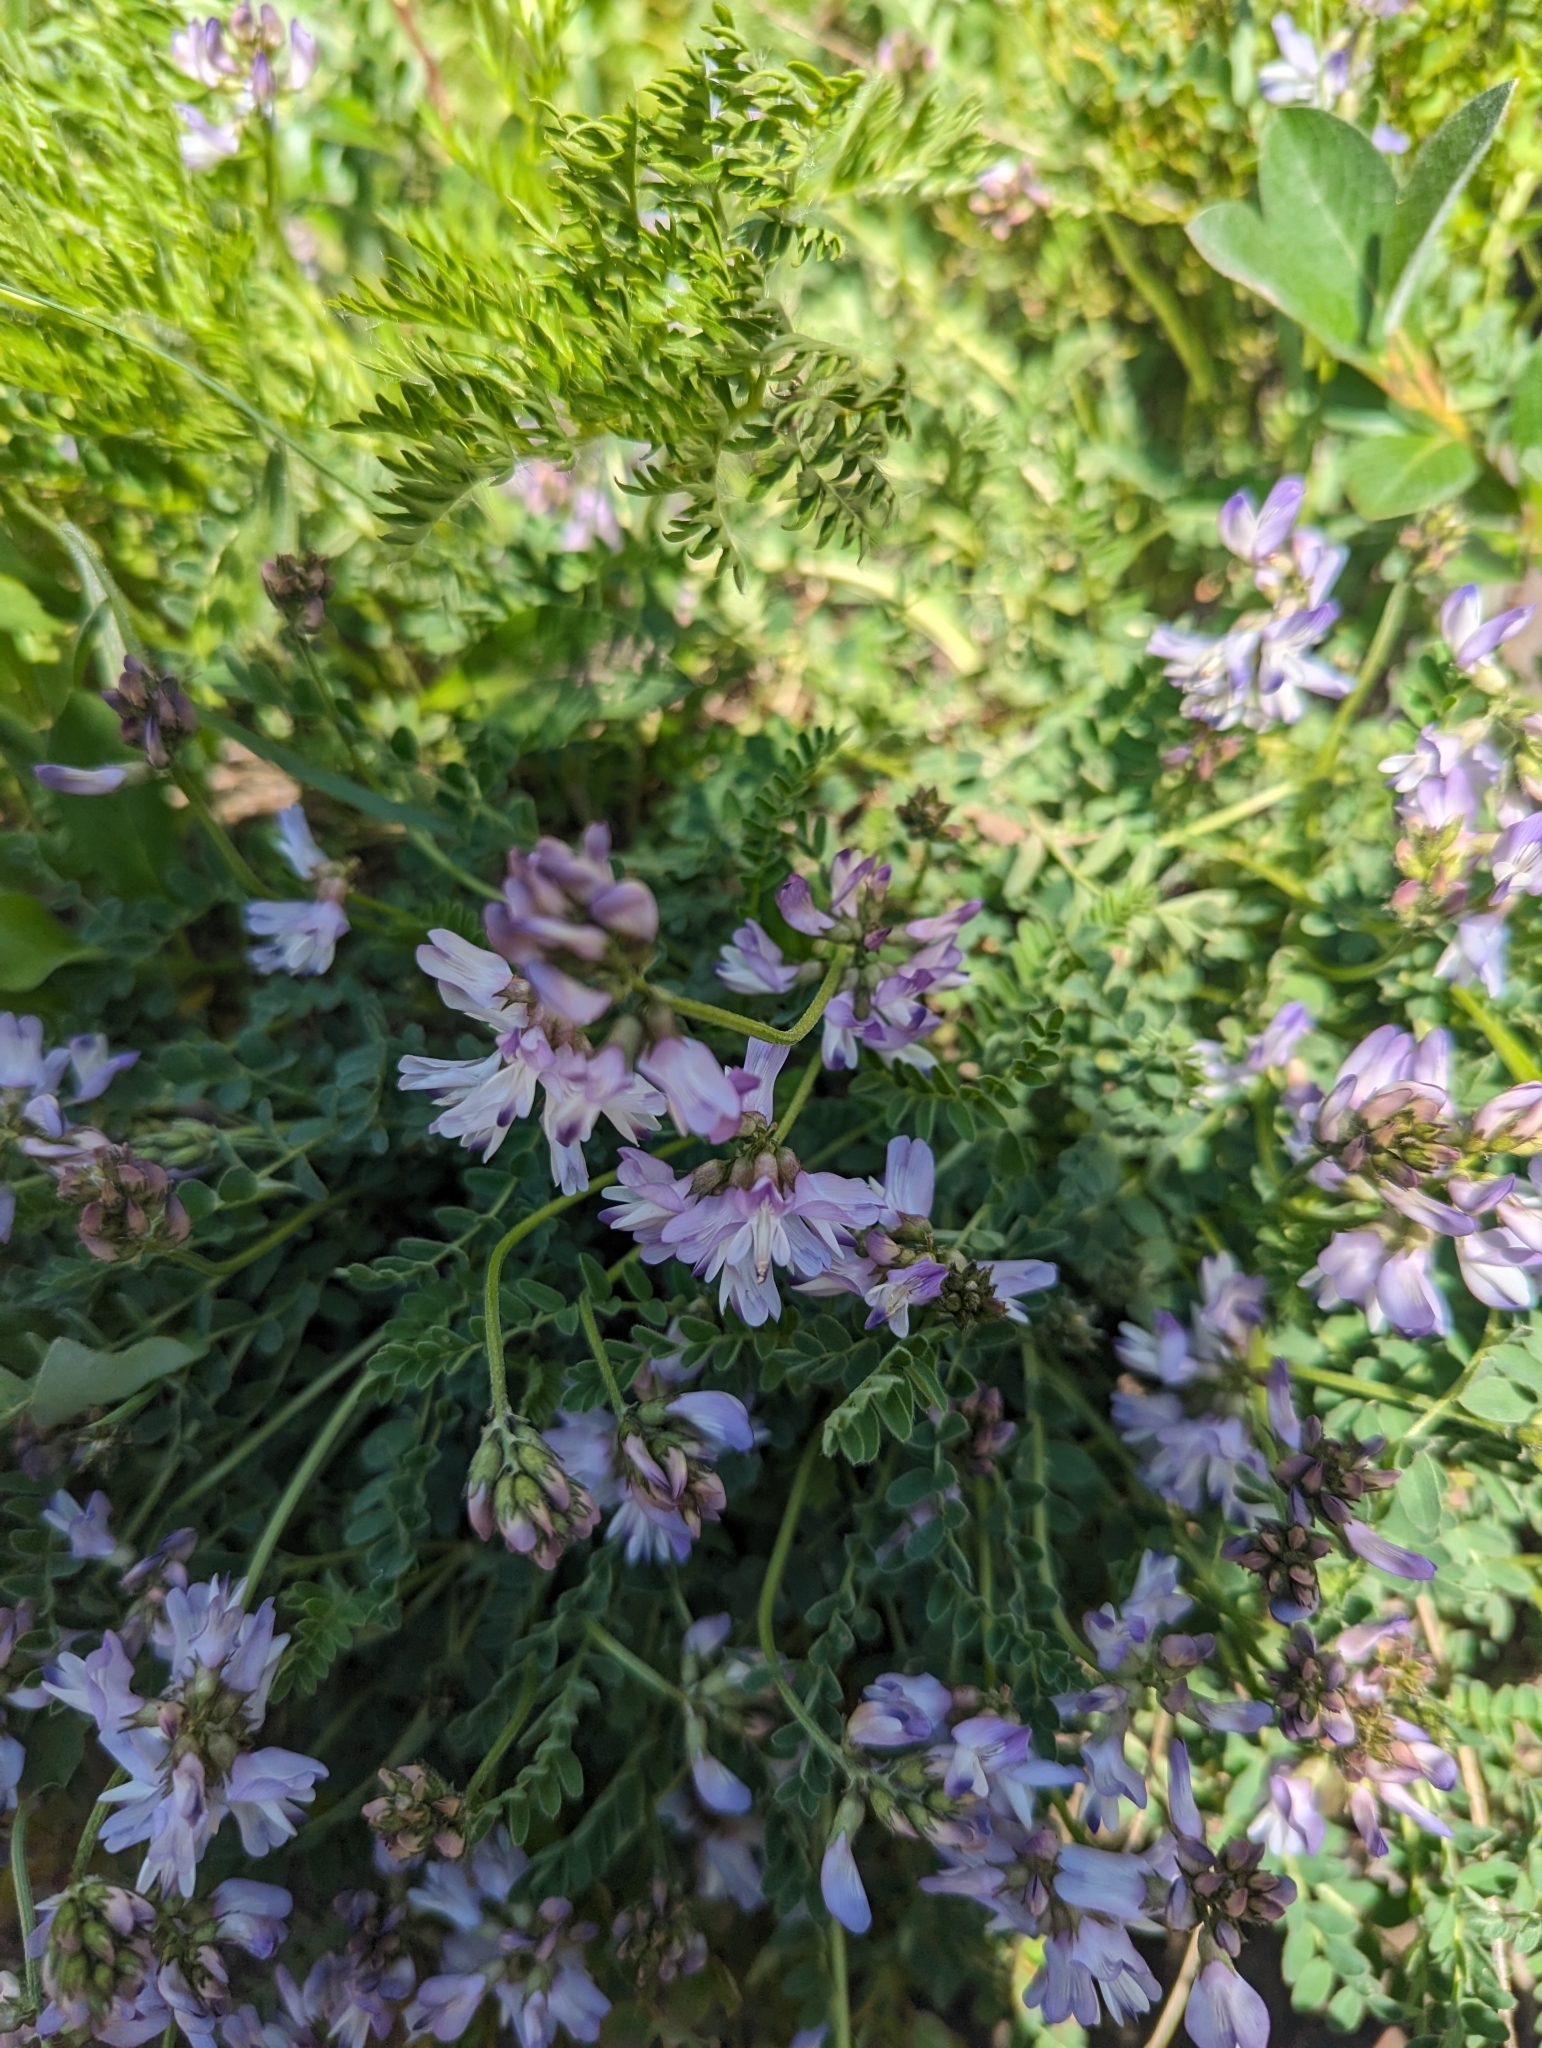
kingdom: Plantae
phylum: Tracheophyta
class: Magnoliopsida
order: Fabales
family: Fabaceae
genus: Astragalus
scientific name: Astragalus alpinus
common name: Alpine milk-vetch
